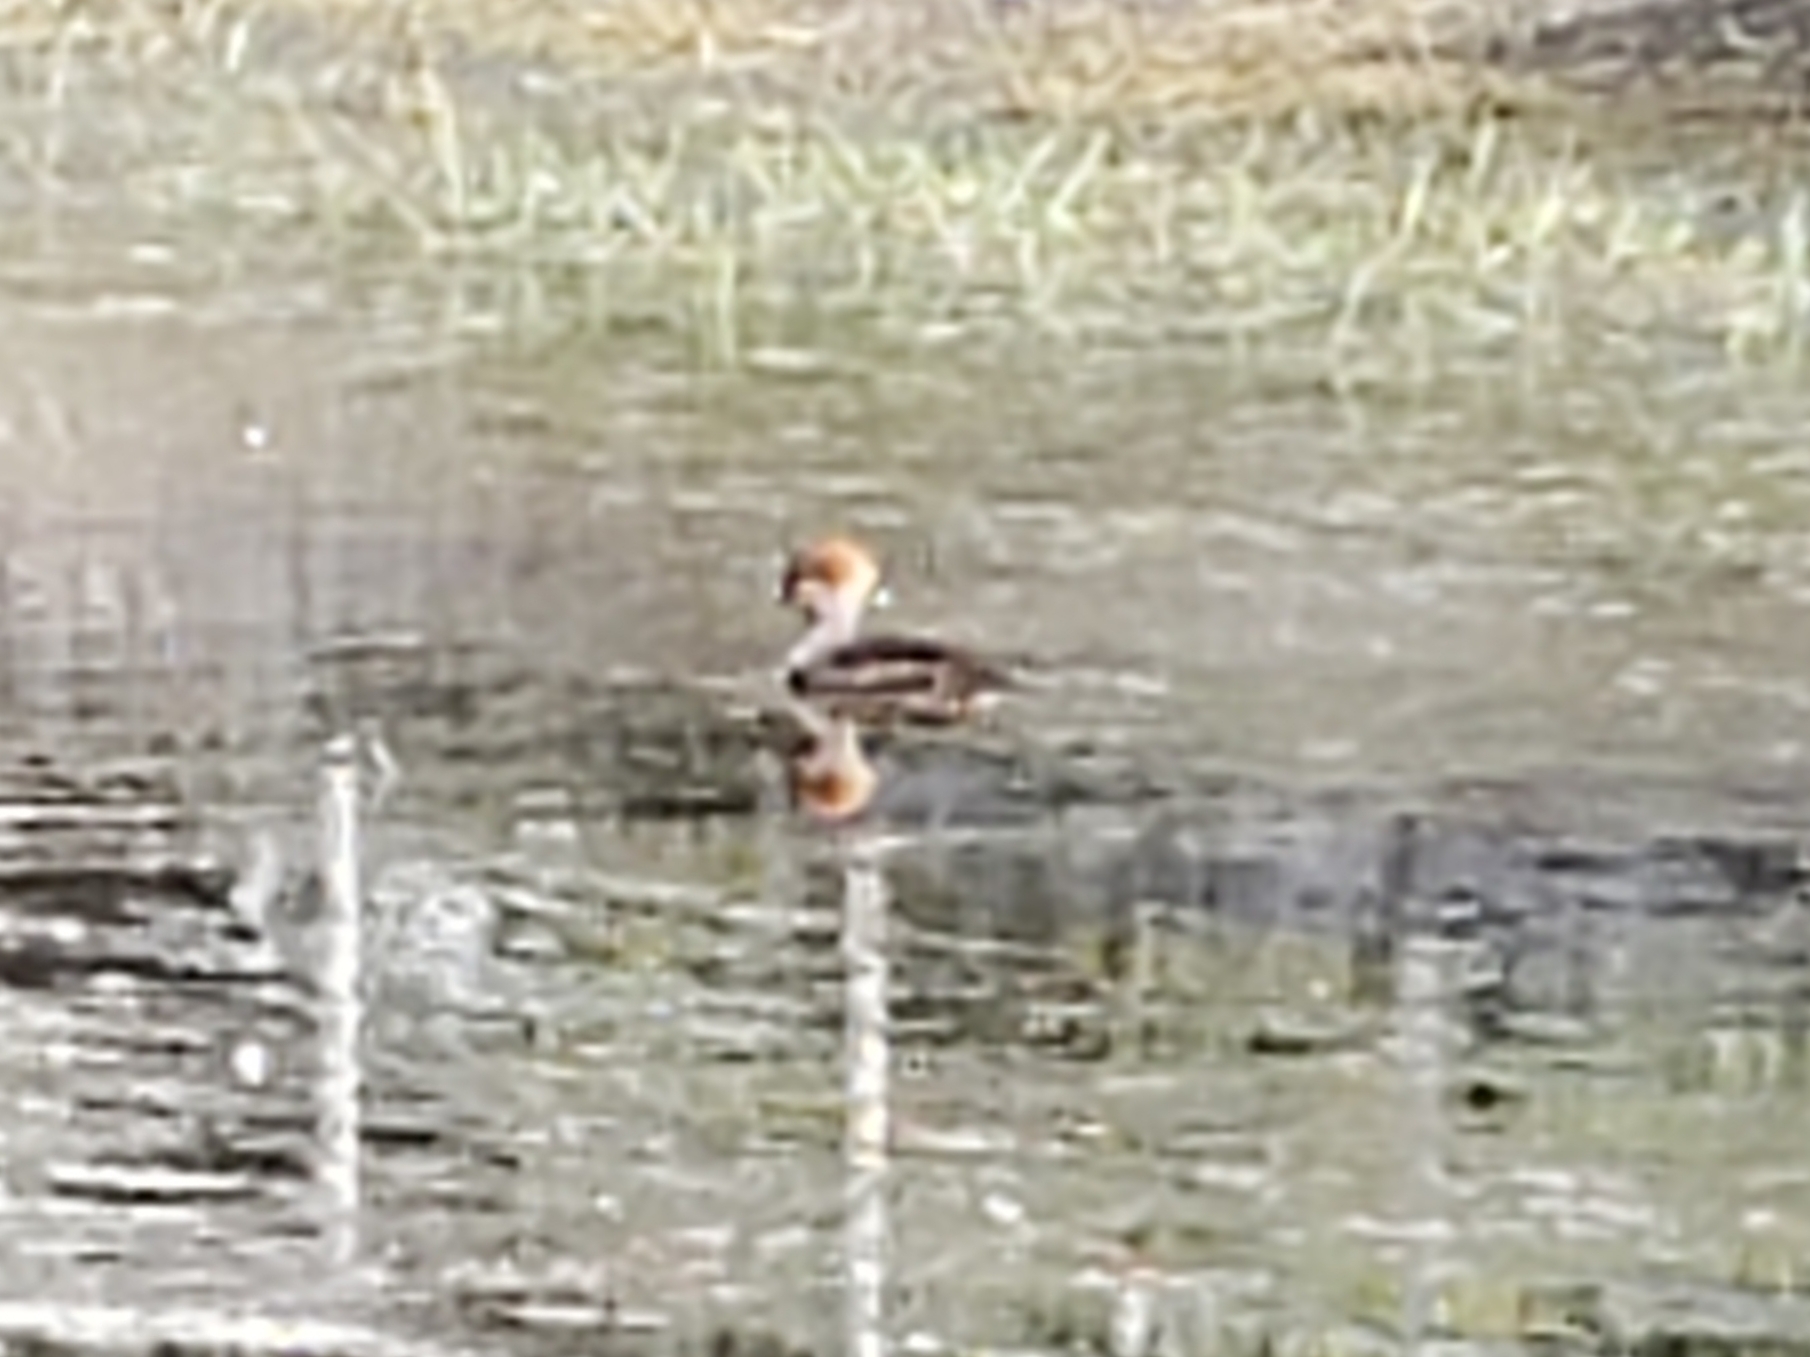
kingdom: Animalia
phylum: Chordata
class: Aves
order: Anseriformes
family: Anatidae
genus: Lophodytes
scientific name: Lophodytes cucullatus
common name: Hooded merganser
